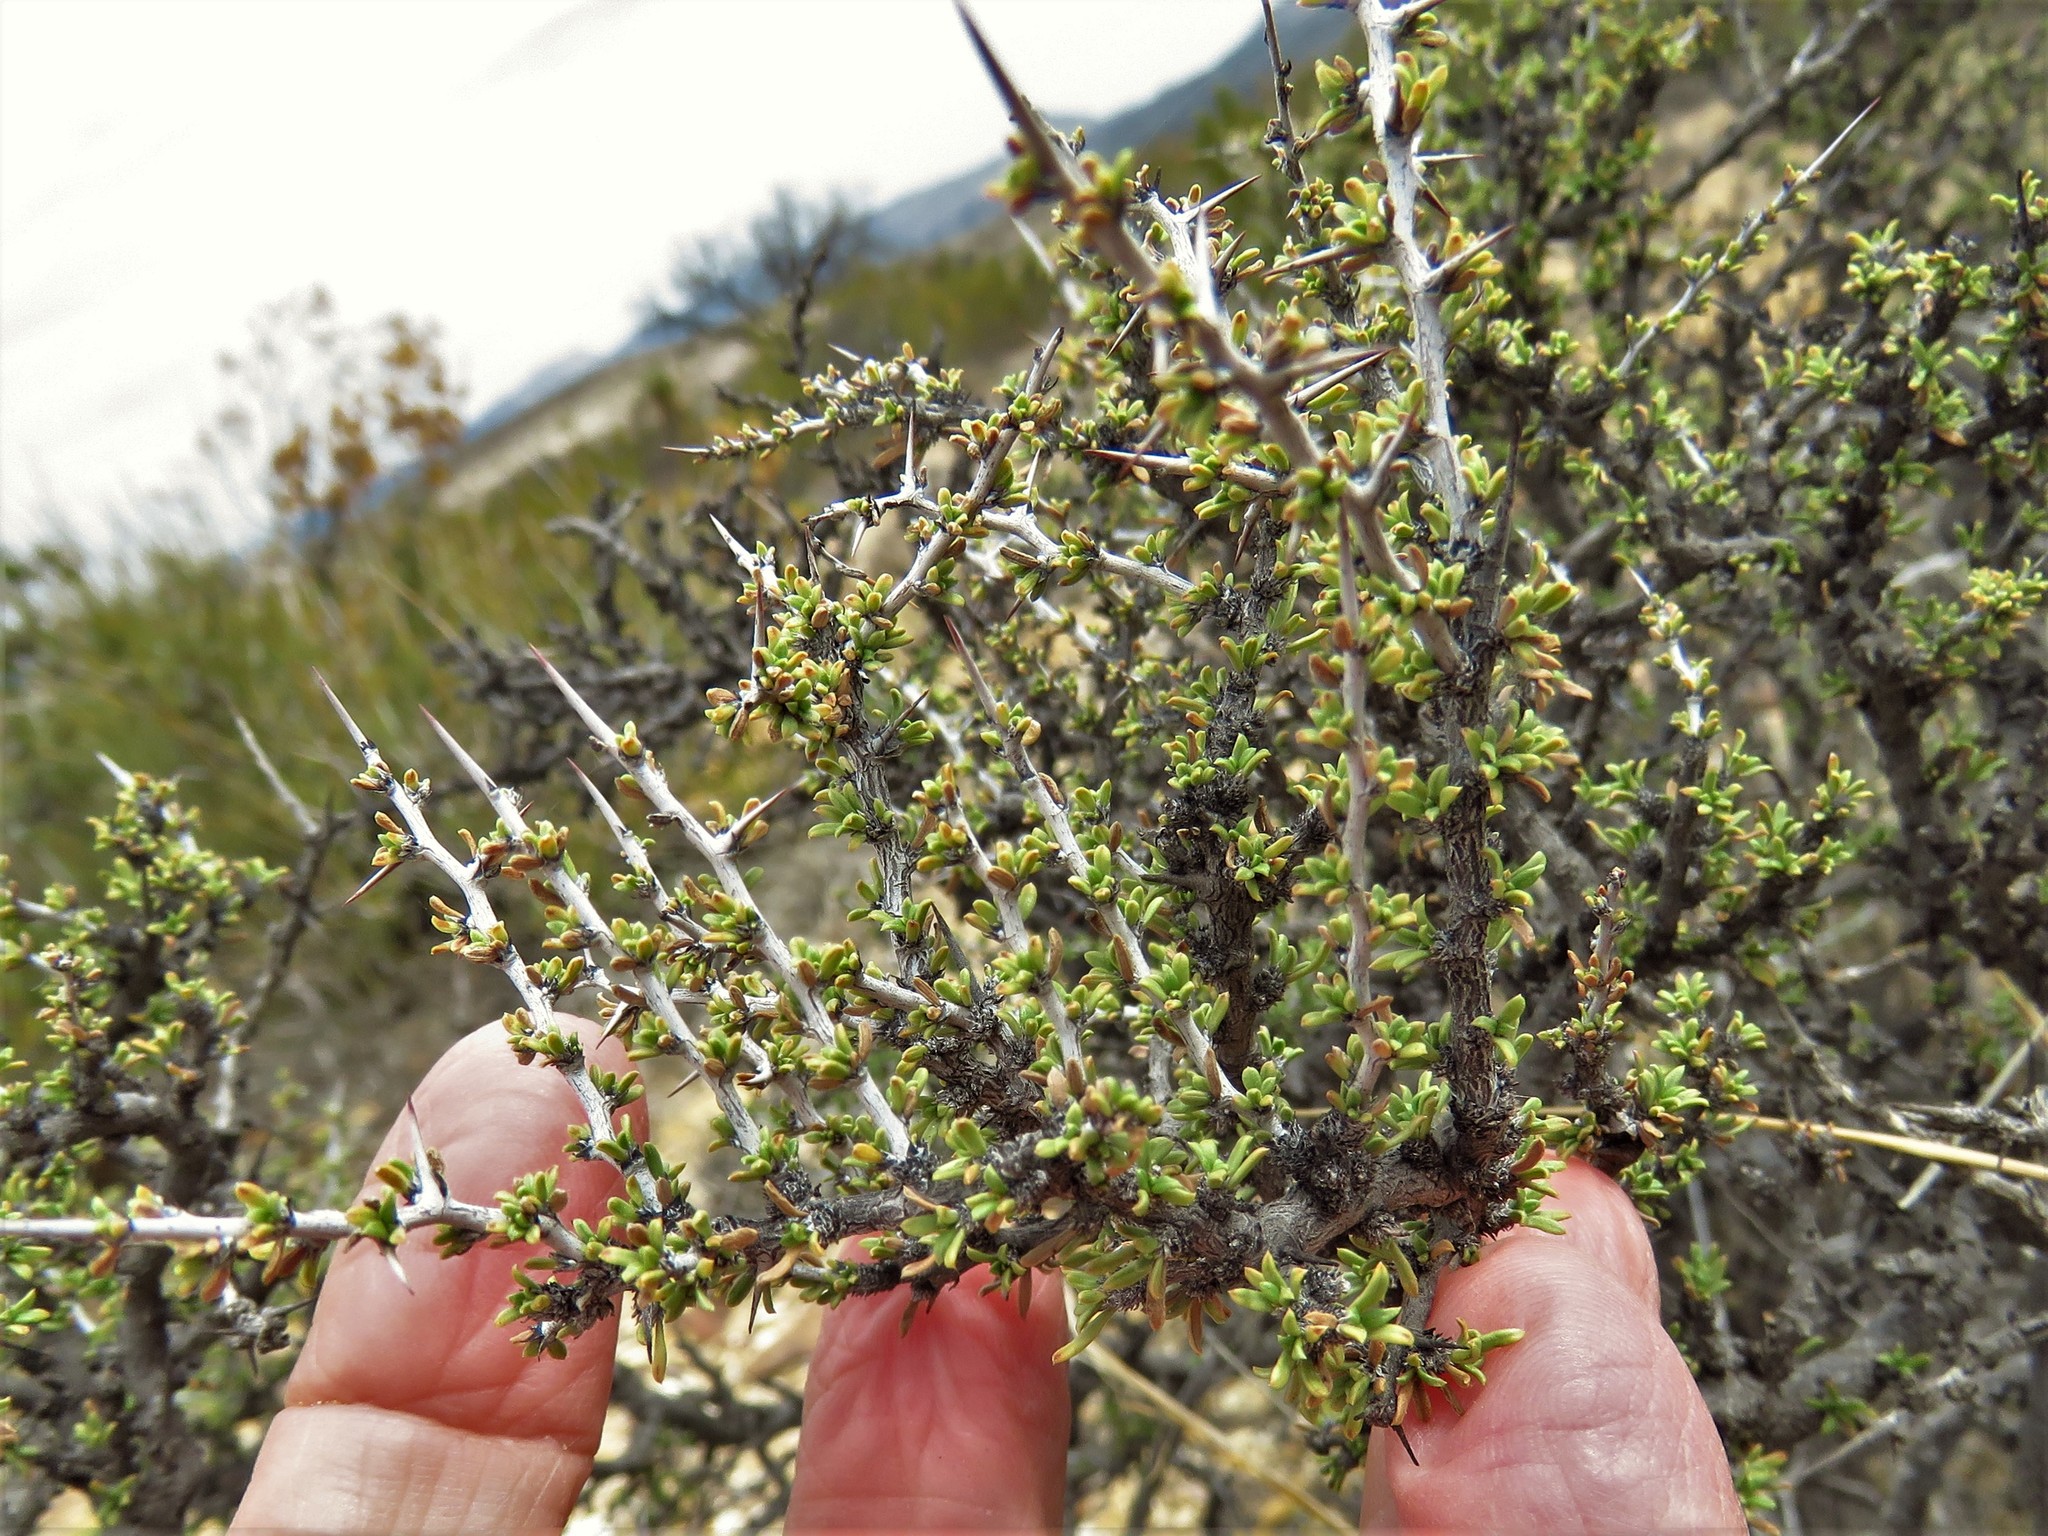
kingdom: Plantae
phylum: Tracheophyta
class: Magnoliopsida
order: Rosales
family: Rhamnaceae
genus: Condalia
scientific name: Condalia ericoides
